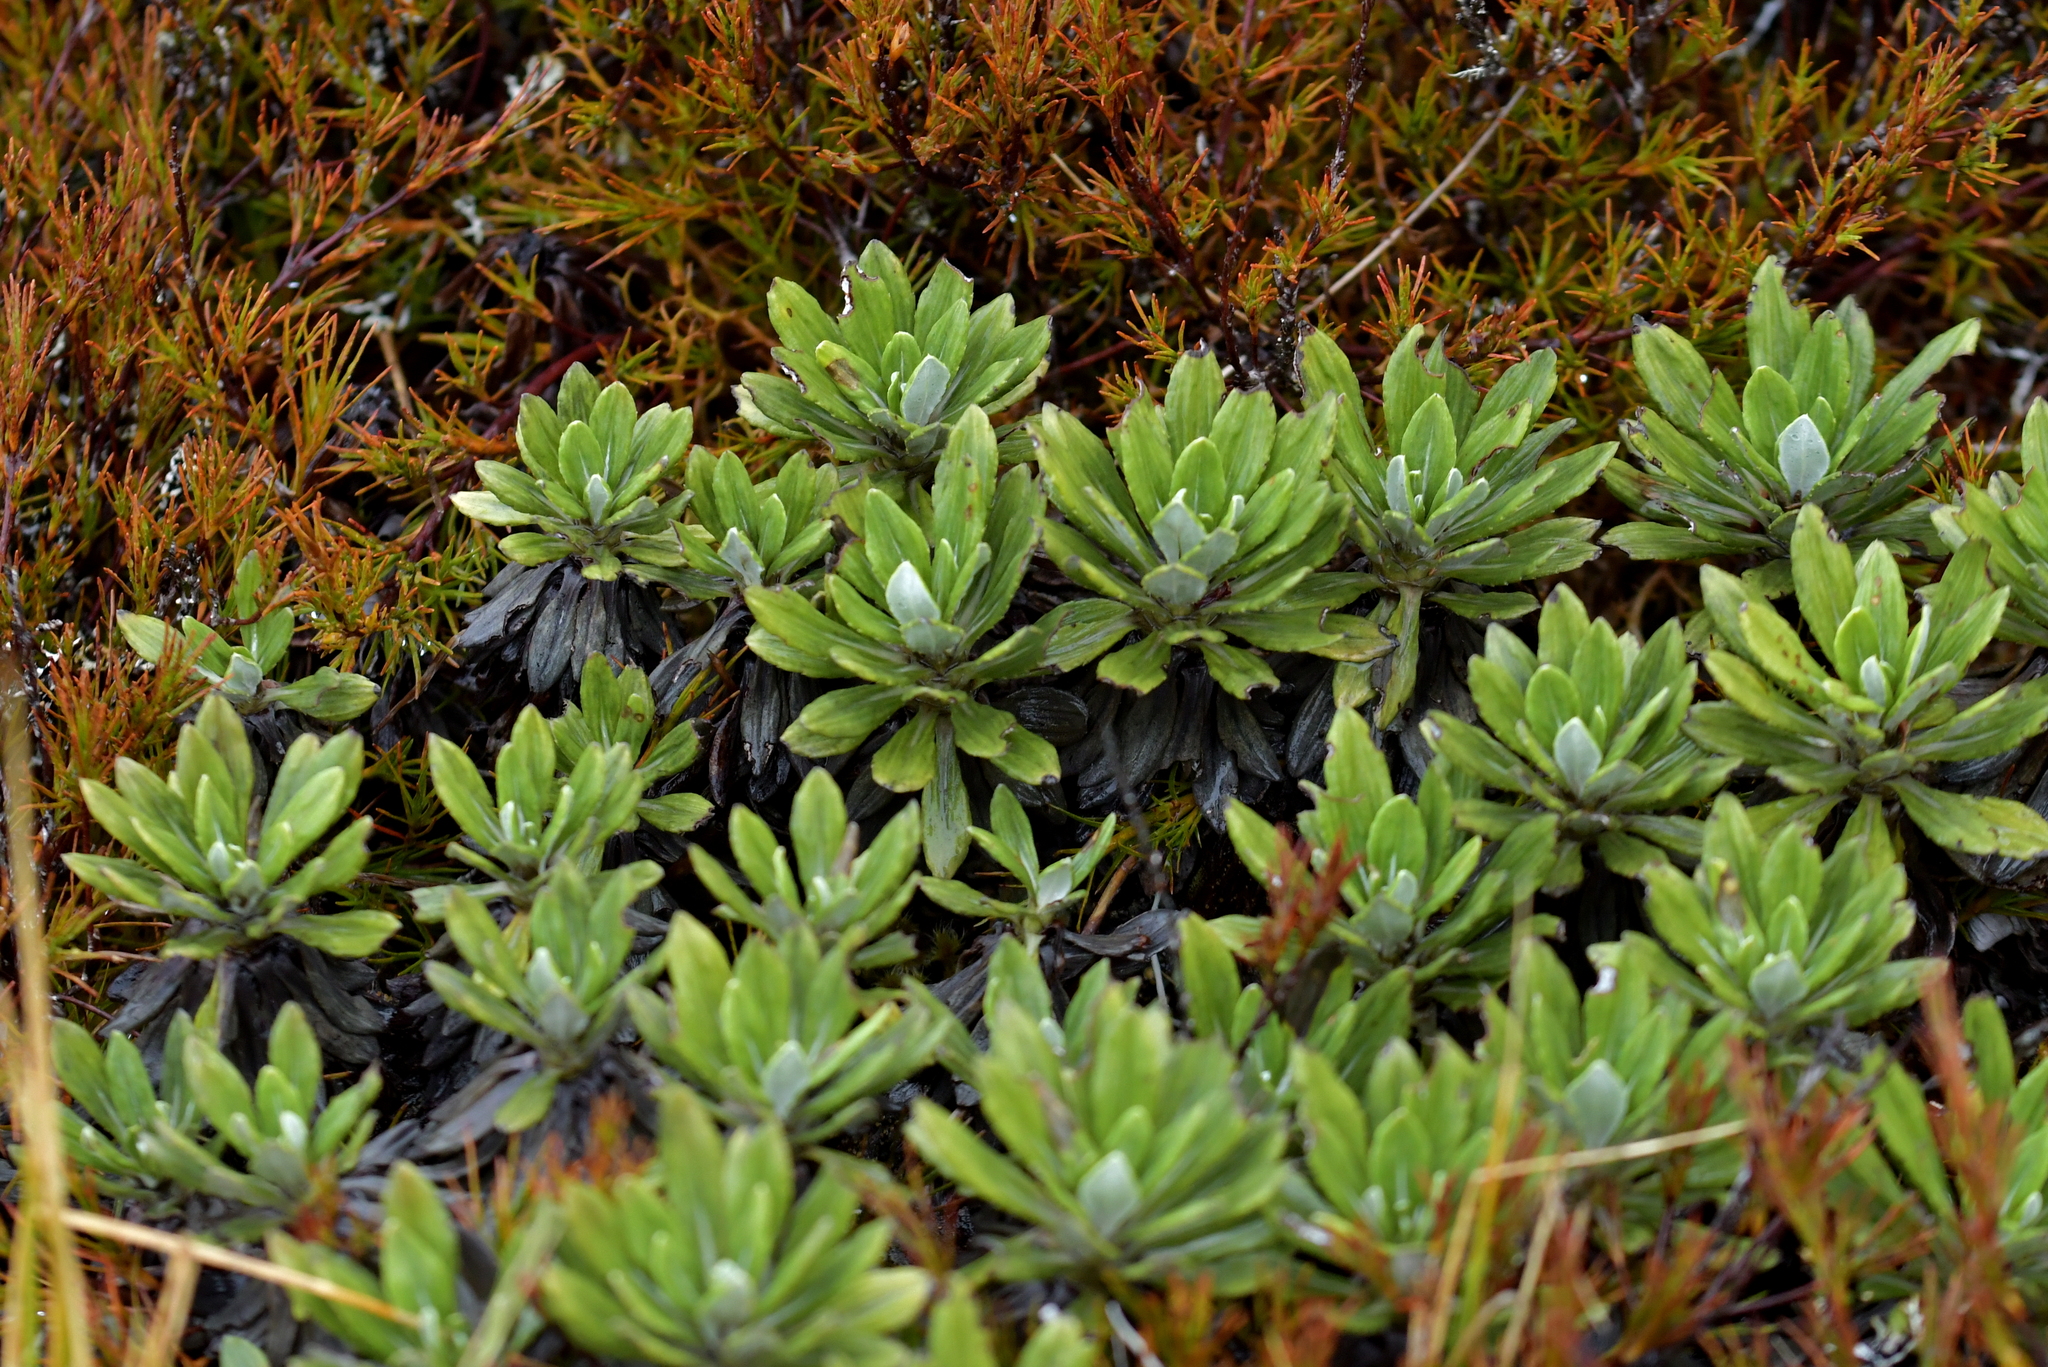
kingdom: Plantae
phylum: Tracheophyta
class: Magnoliopsida
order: Asterales
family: Asteraceae
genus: Celmisia
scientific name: Celmisia discolor
